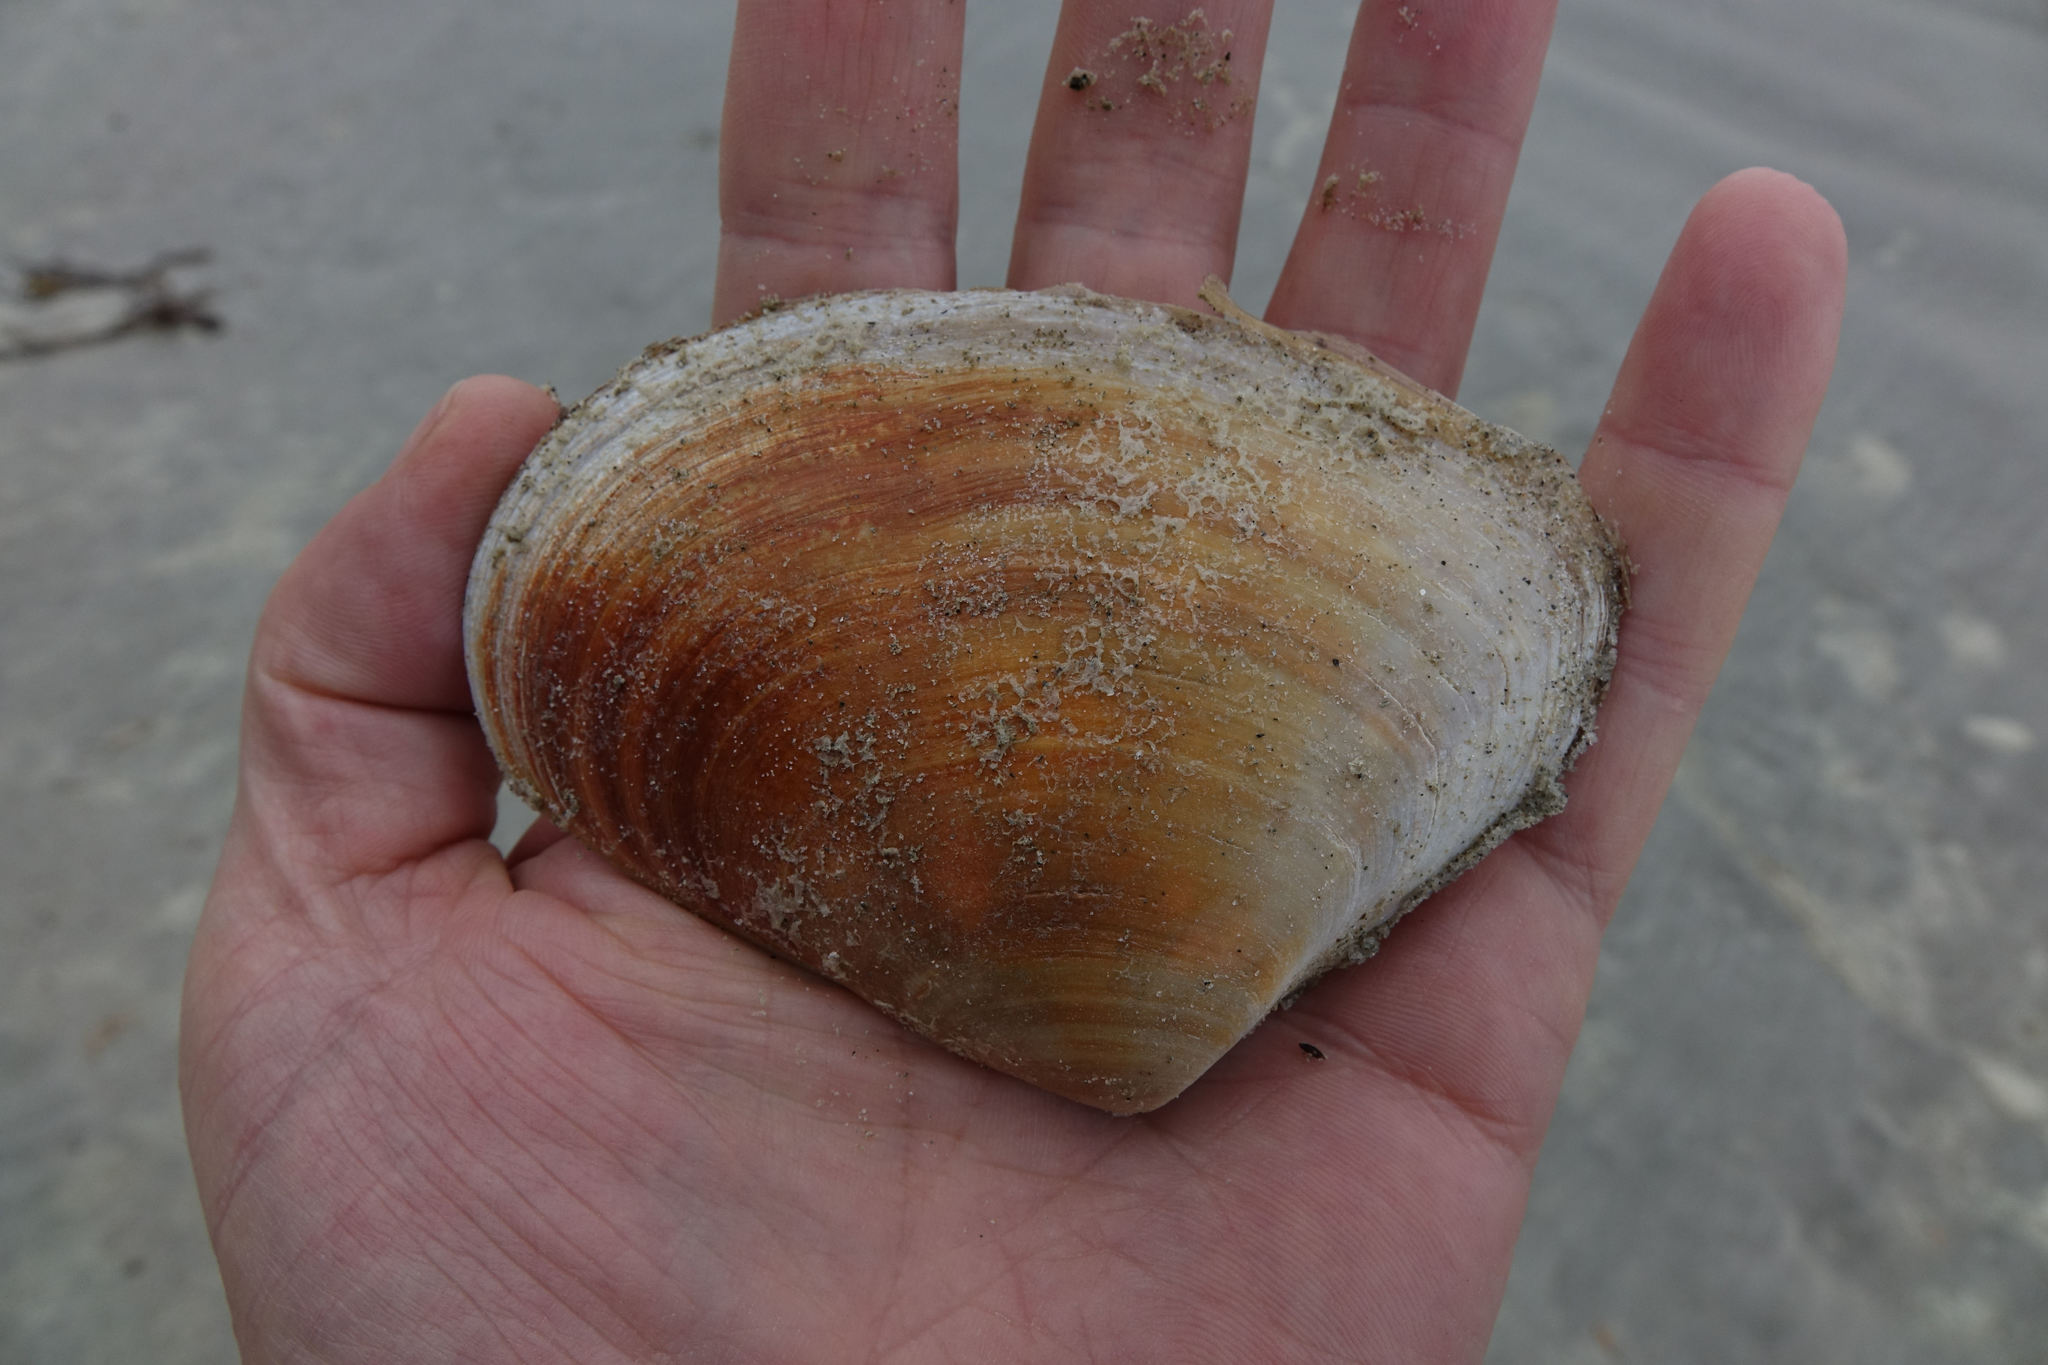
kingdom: Animalia
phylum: Mollusca
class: Bivalvia
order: Venerida
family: Mesodesmatidae
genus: Paphies
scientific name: Paphies donacina
